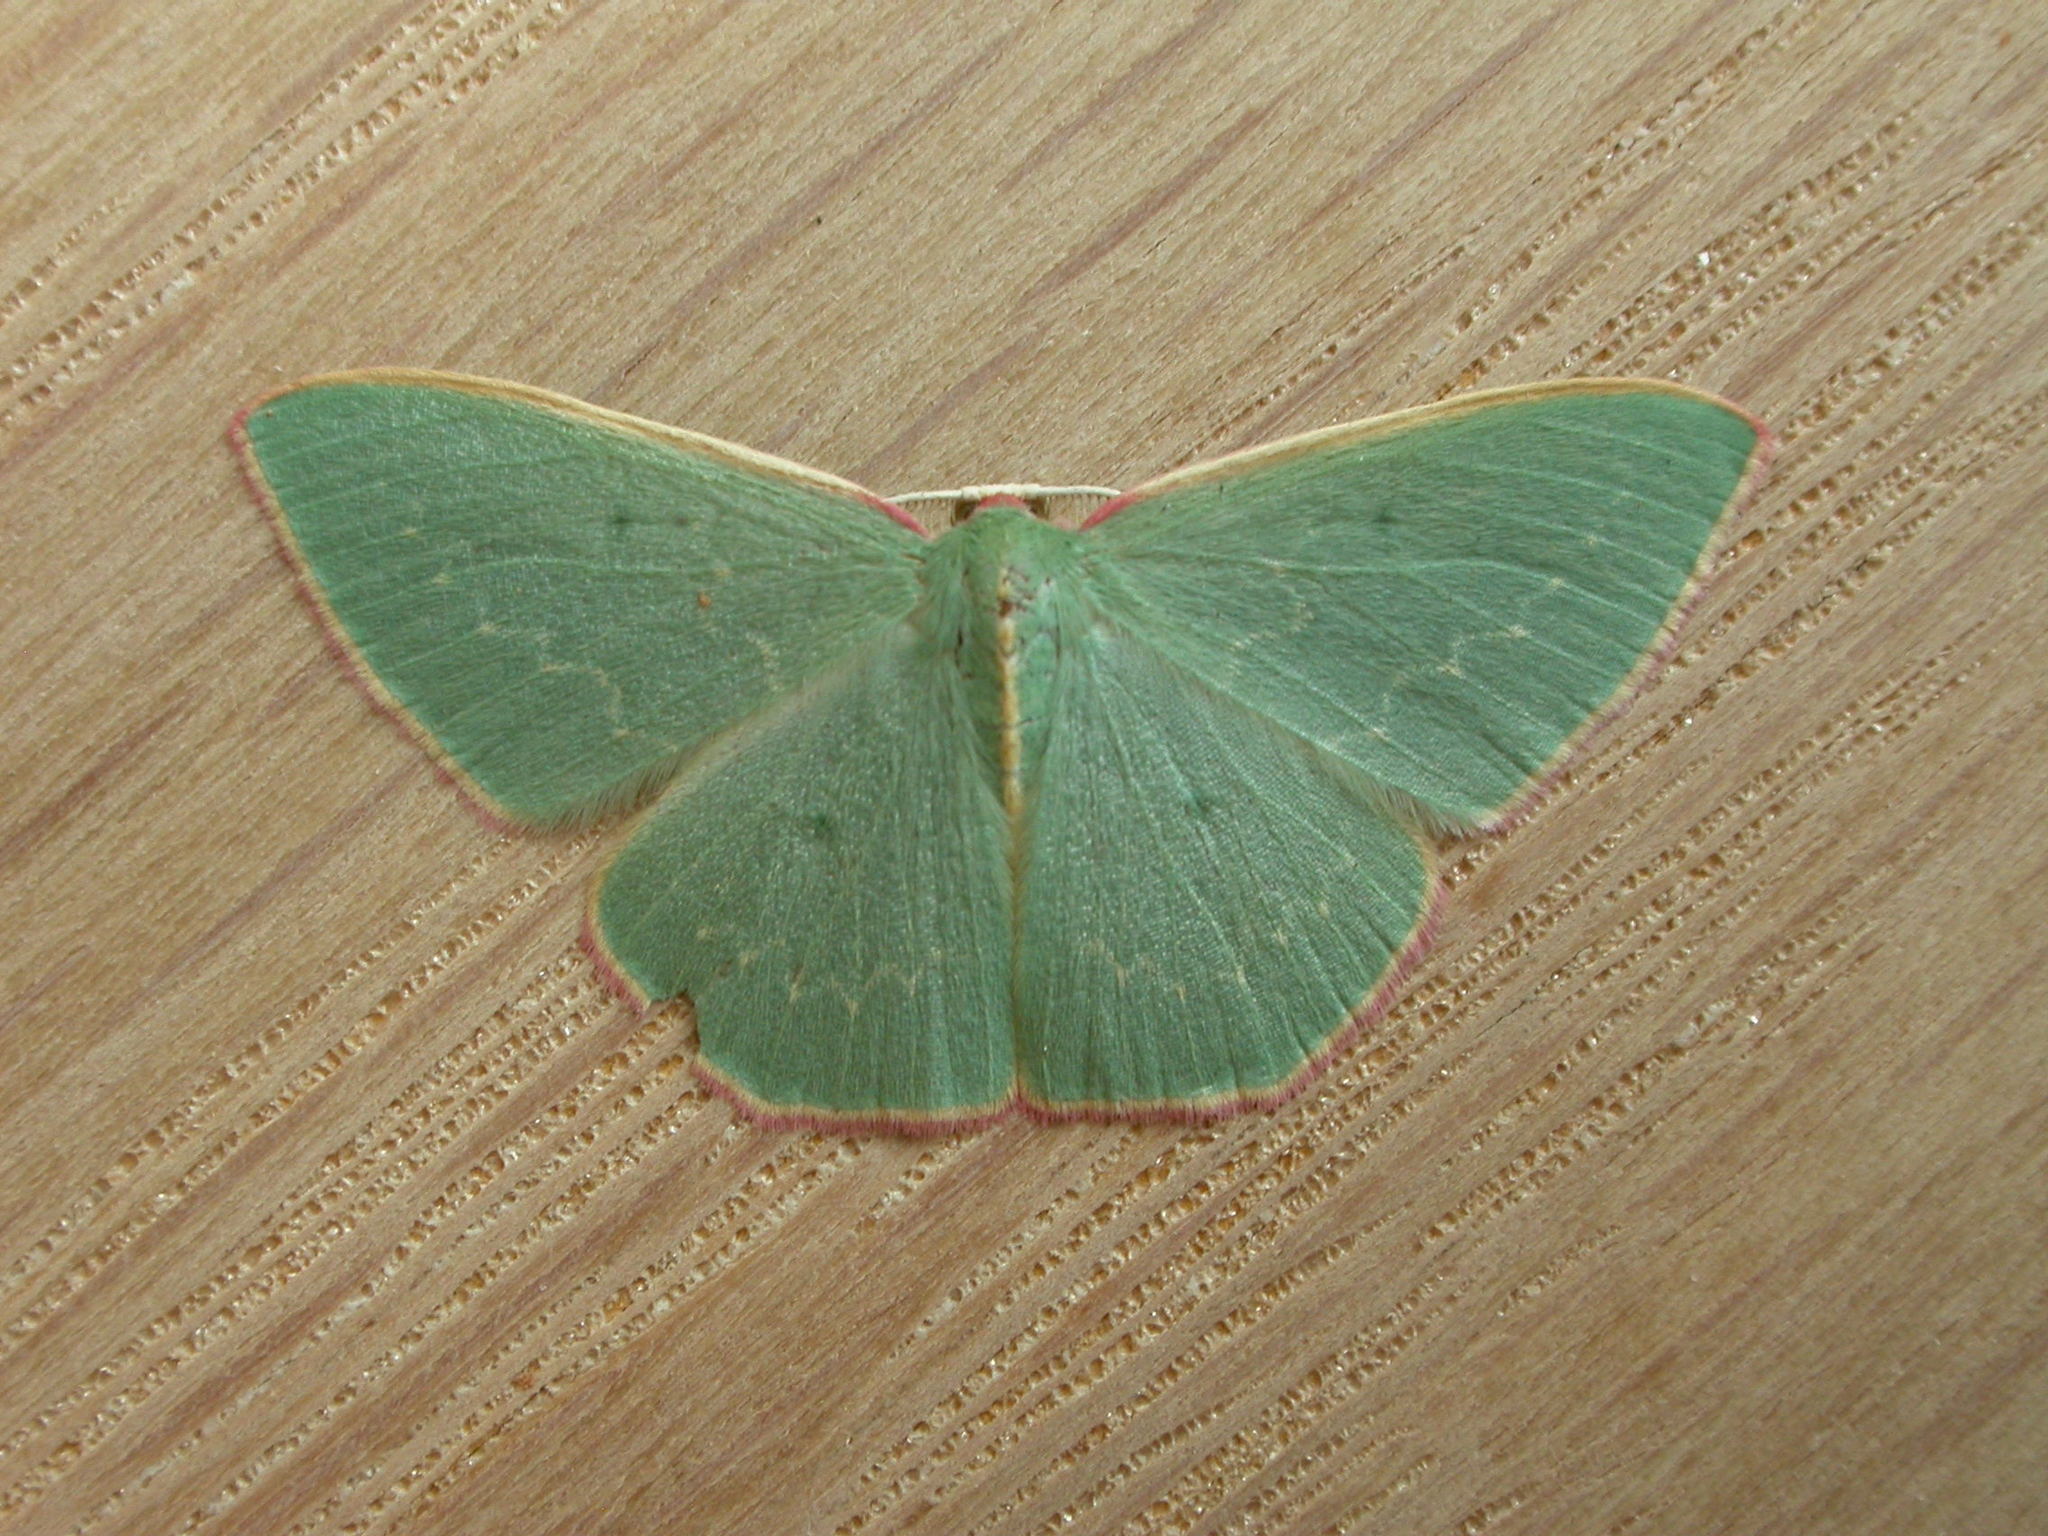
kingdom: Animalia
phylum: Arthropoda
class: Insecta
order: Lepidoptera
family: Geometridae
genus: Chlorocoma
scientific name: Chlorocoma vertumnaria
